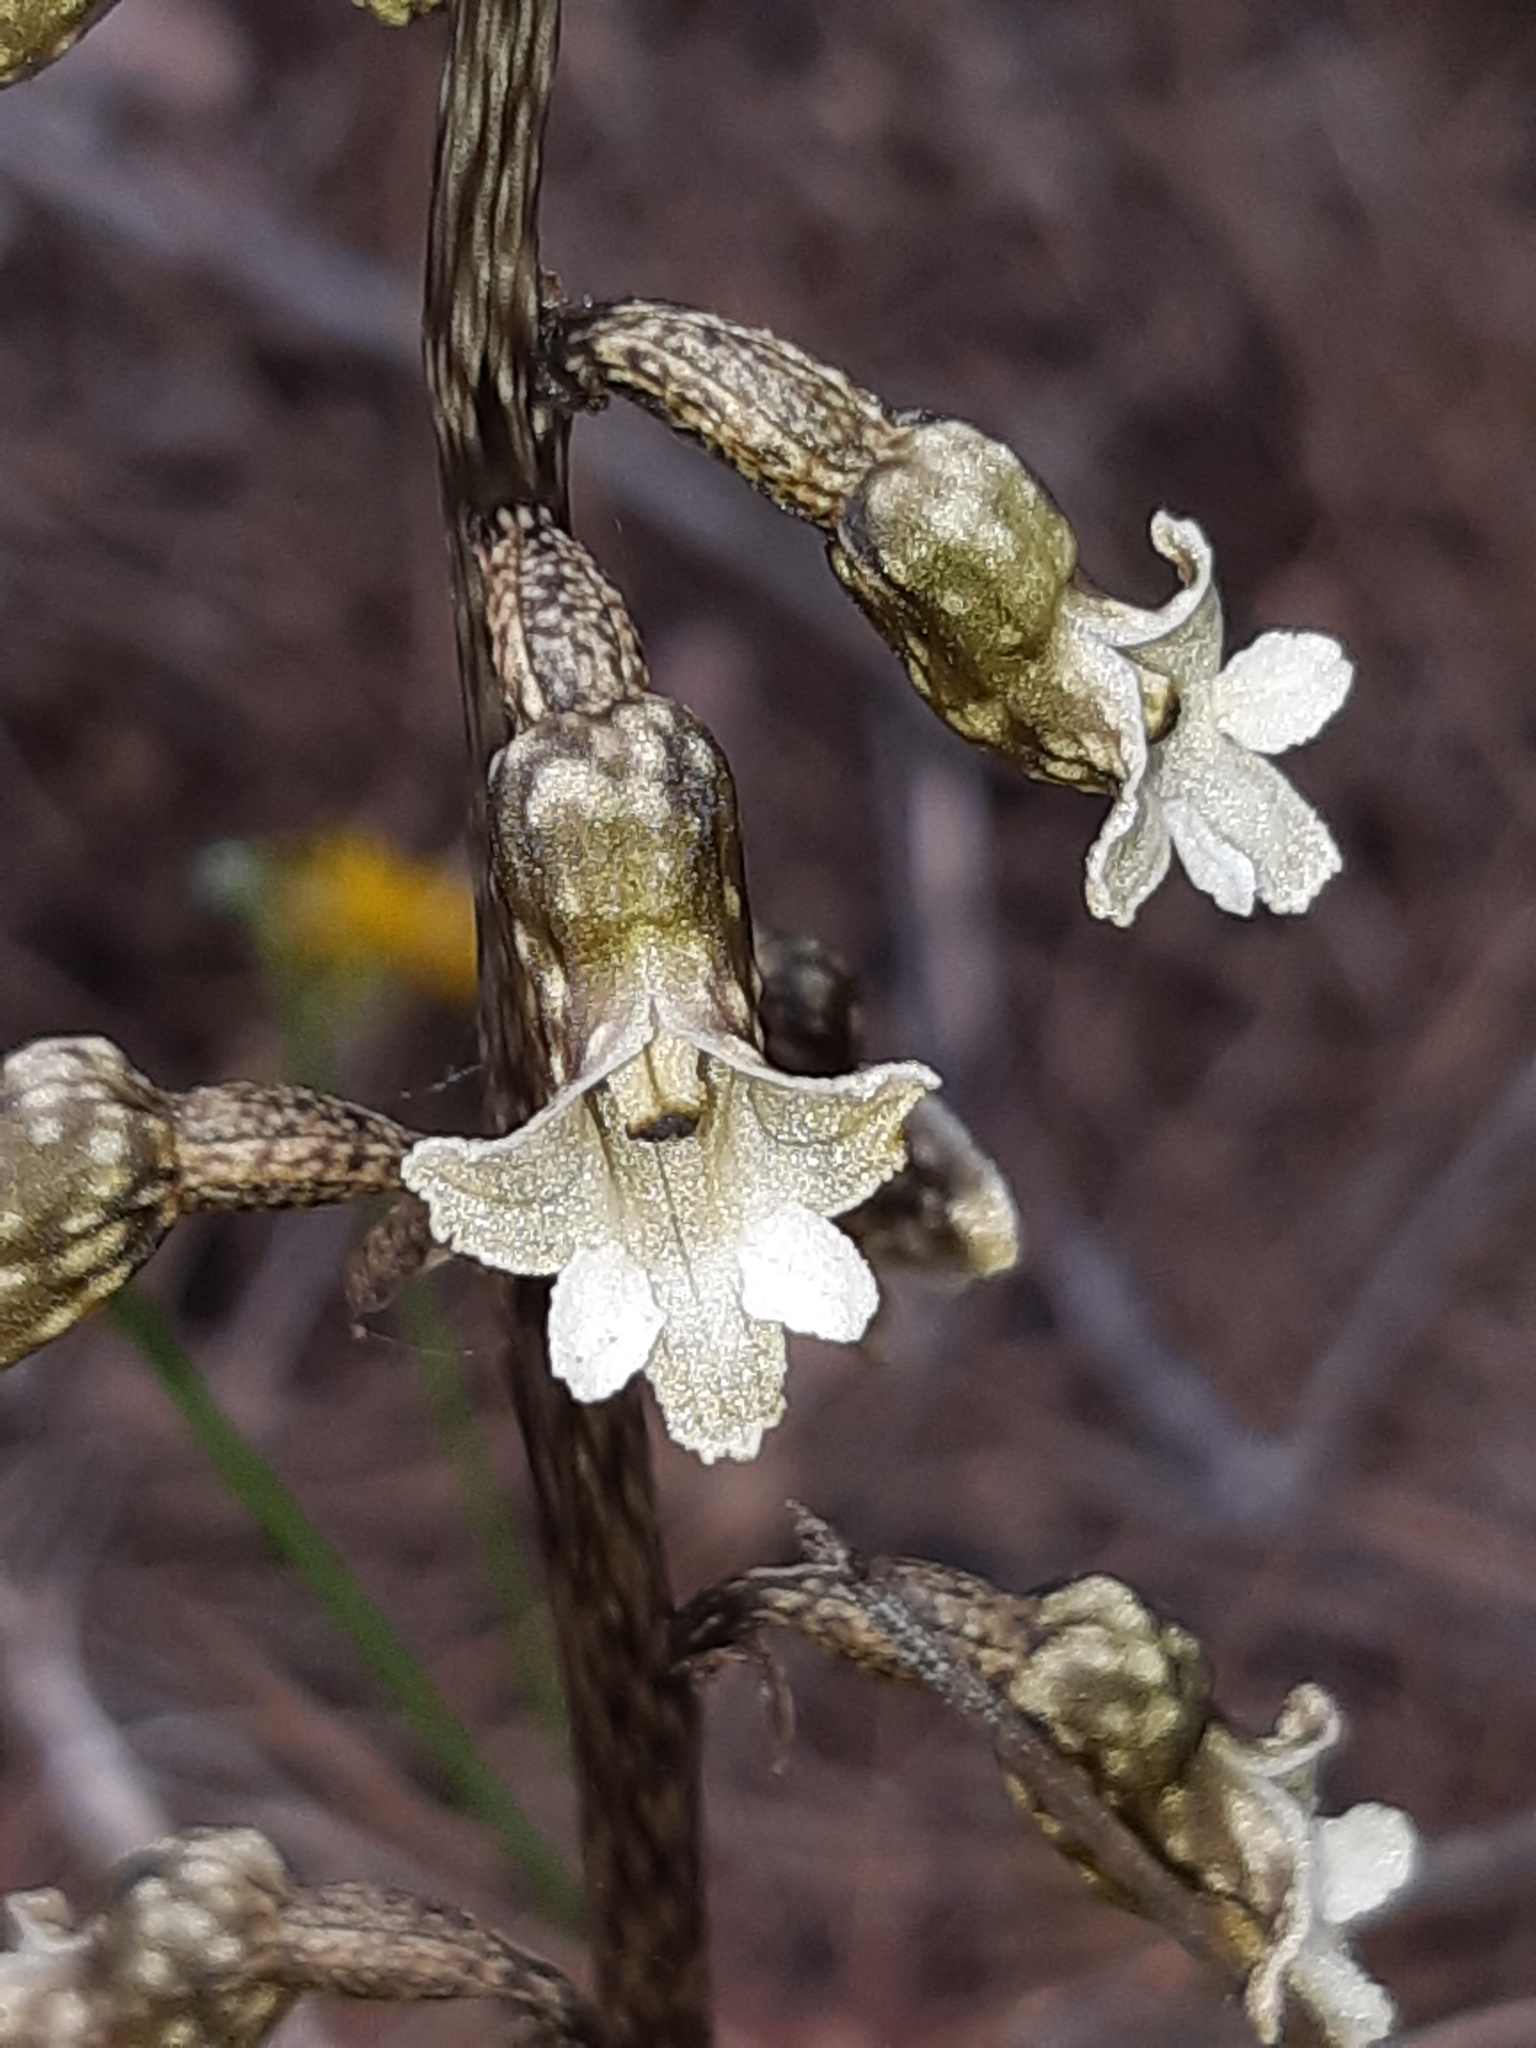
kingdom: Plantae
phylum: Tracheophyta
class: Liliopsida
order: Asparagales
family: Orchidaceae
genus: Gastrodia
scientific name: Gastrodia cunninghamii
